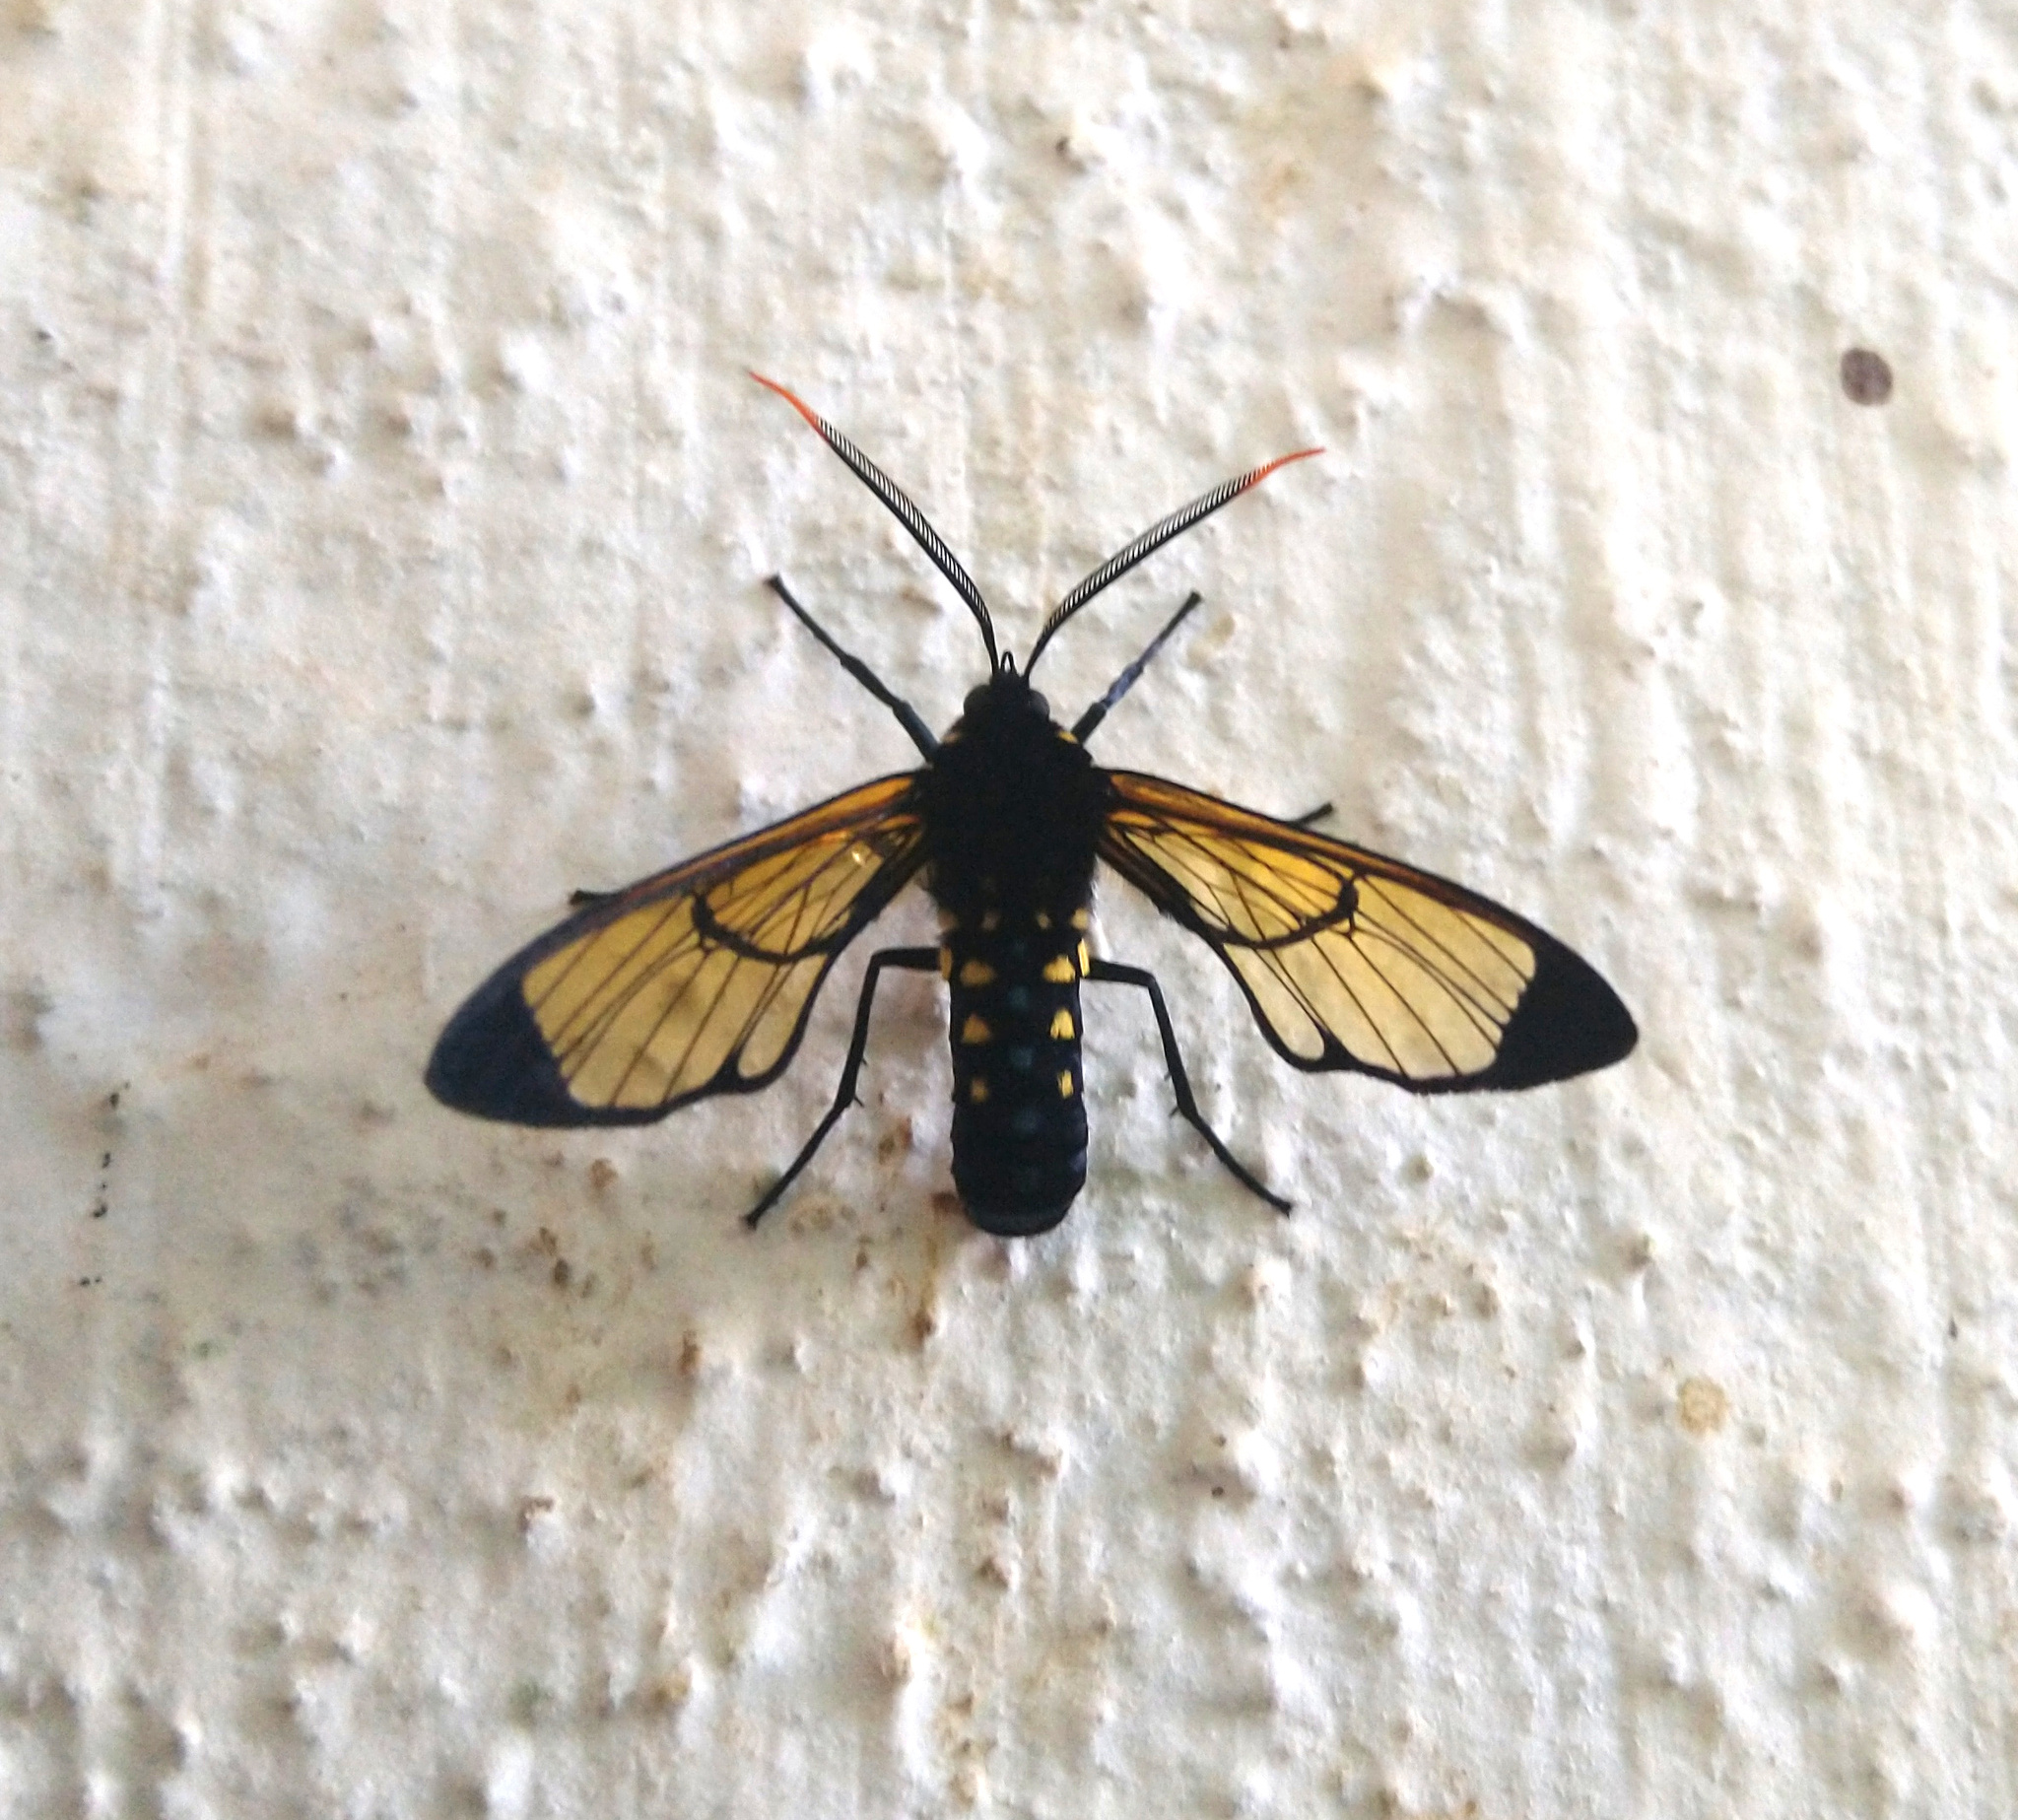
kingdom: Animalia
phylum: Arthropoda
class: Insecta
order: Lepidoptera
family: Erebidae
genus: Isanthrene
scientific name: Isanthrene incendiaria
